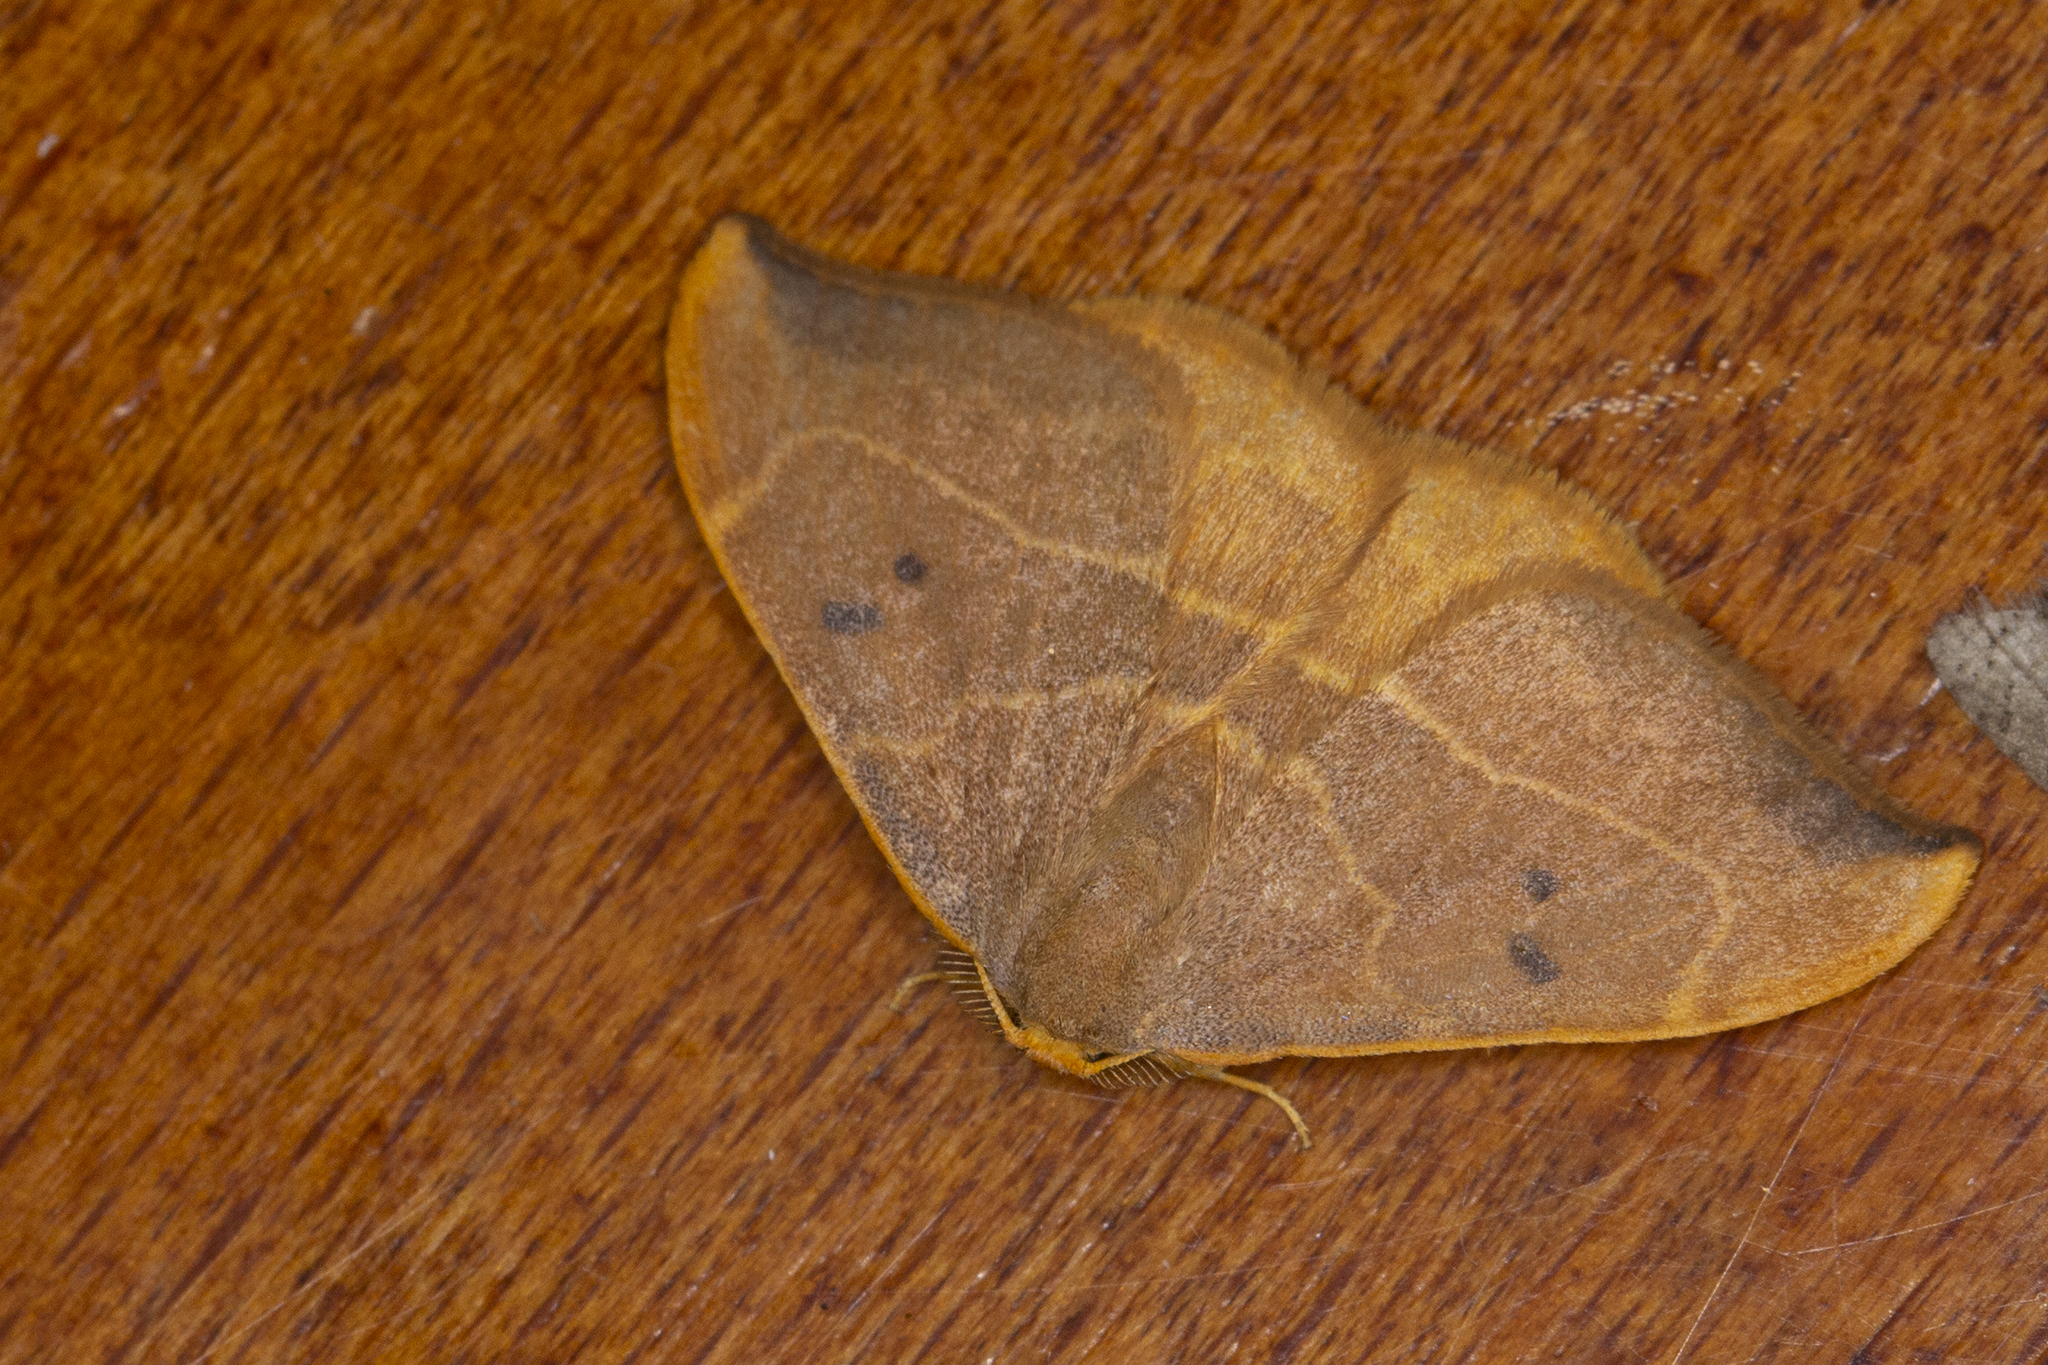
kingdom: Animalia
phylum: Arthropoda
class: Insecta
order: Lepidoptera
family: Drepanidae
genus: Watsonalla
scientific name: Watsonalla binaria
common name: Oak hook-tip
